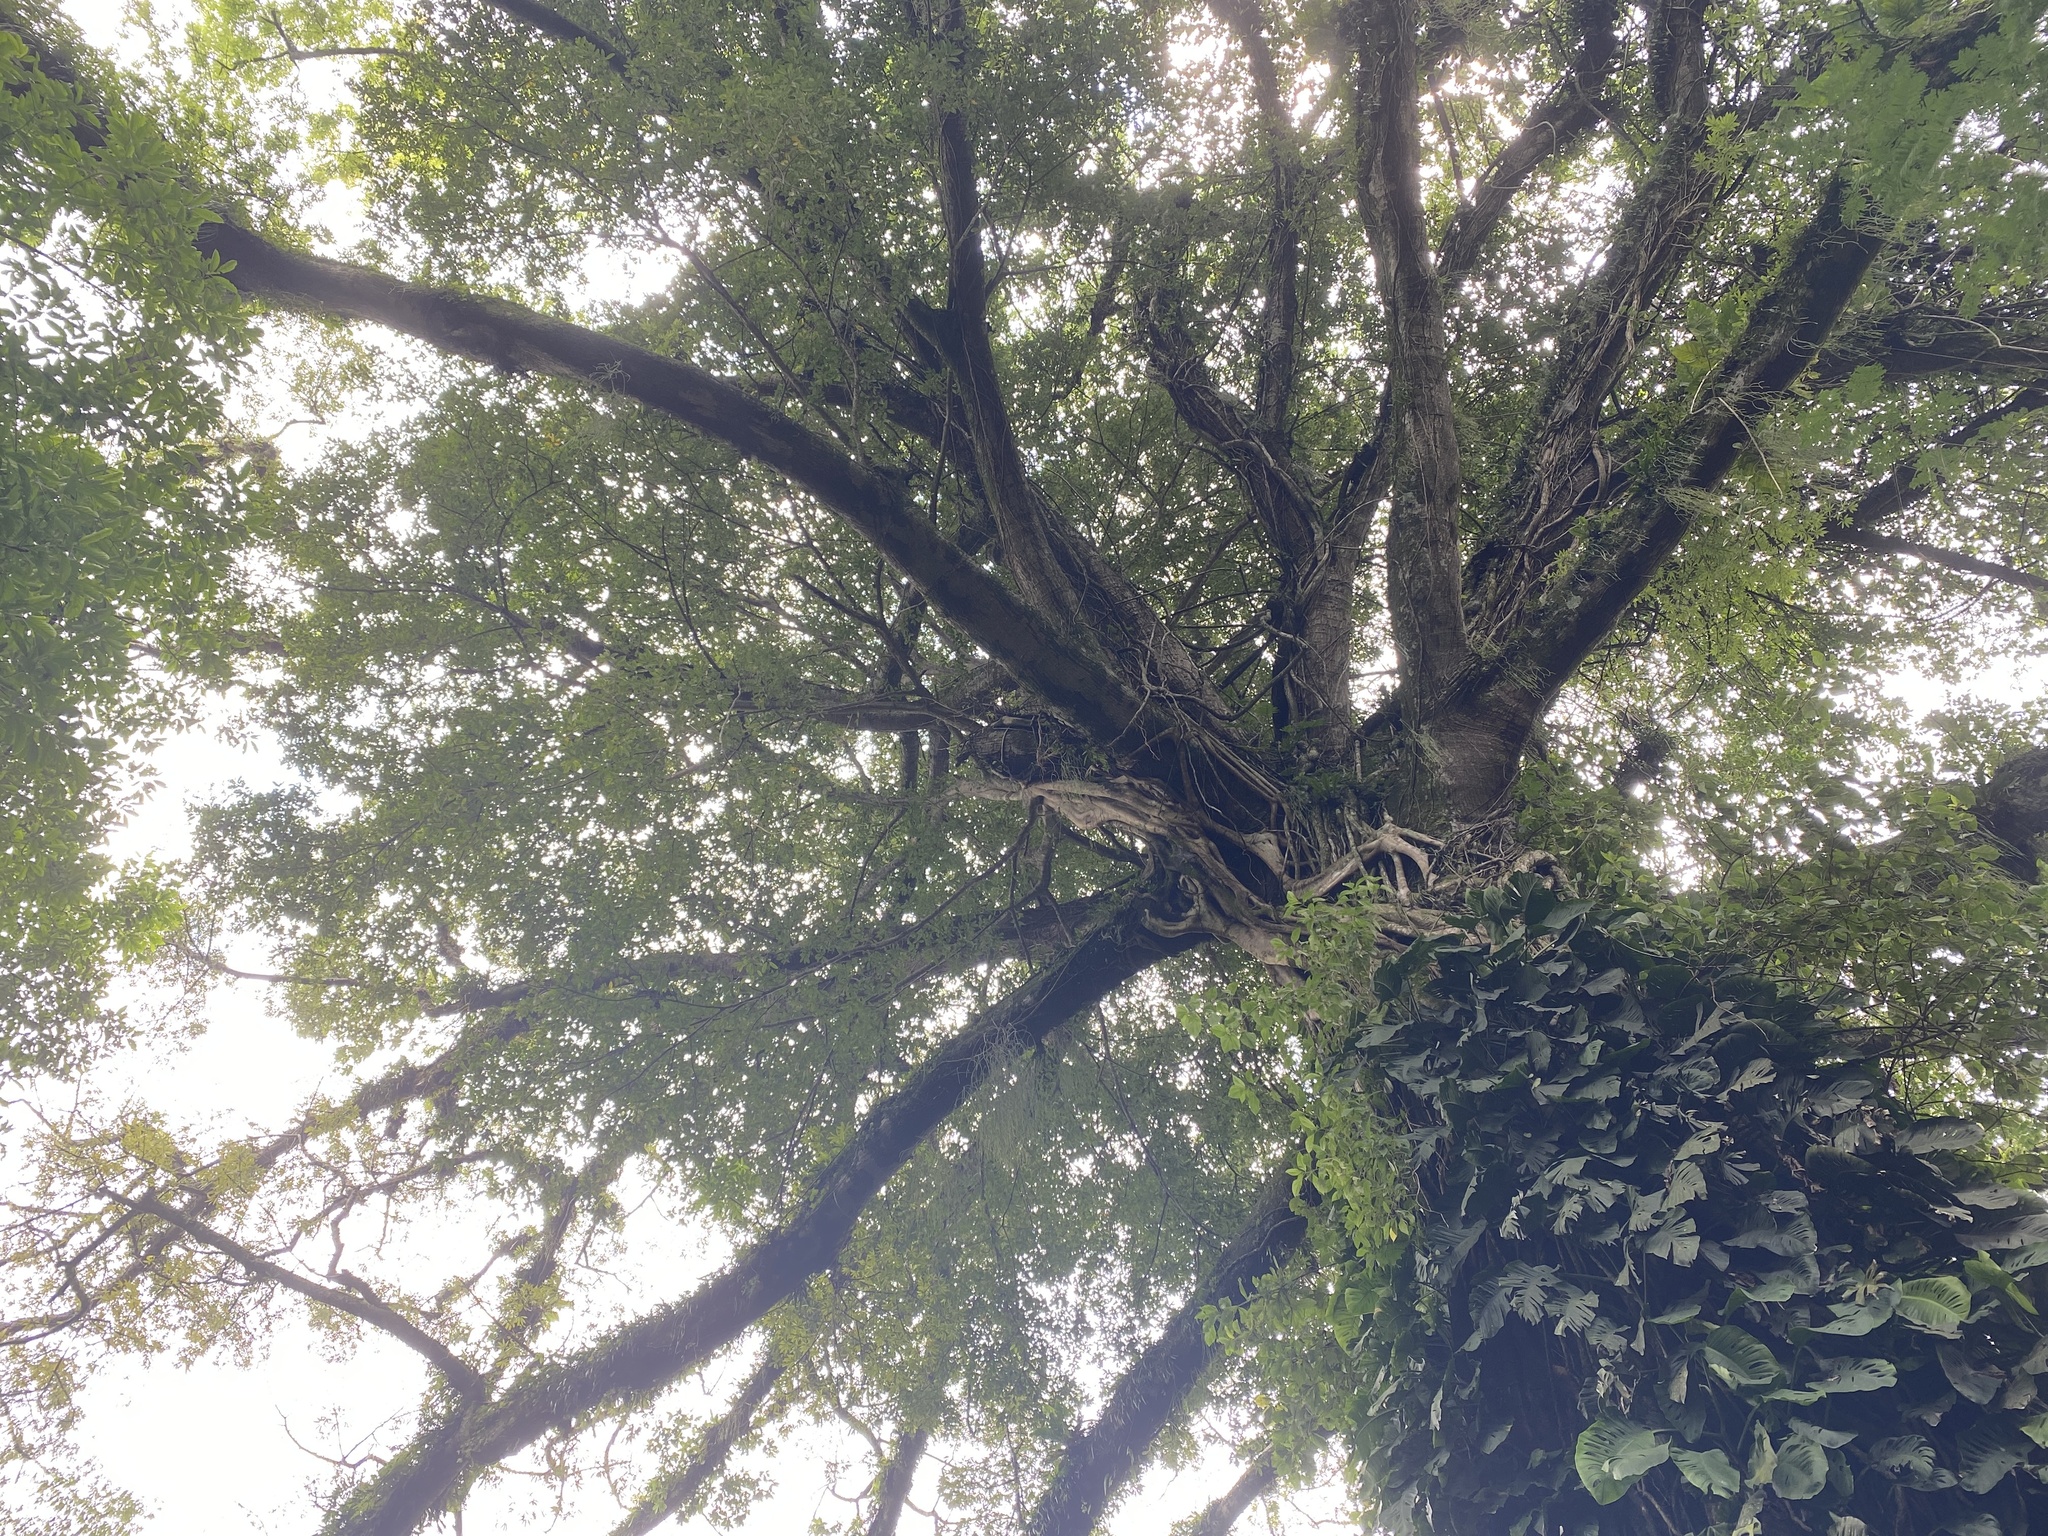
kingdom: Plantae
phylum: Tracheophyta
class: Magnoliopsida
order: Malvales
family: Malvaceae
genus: Ceiba
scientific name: Ceiba pentandra
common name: Kapok
